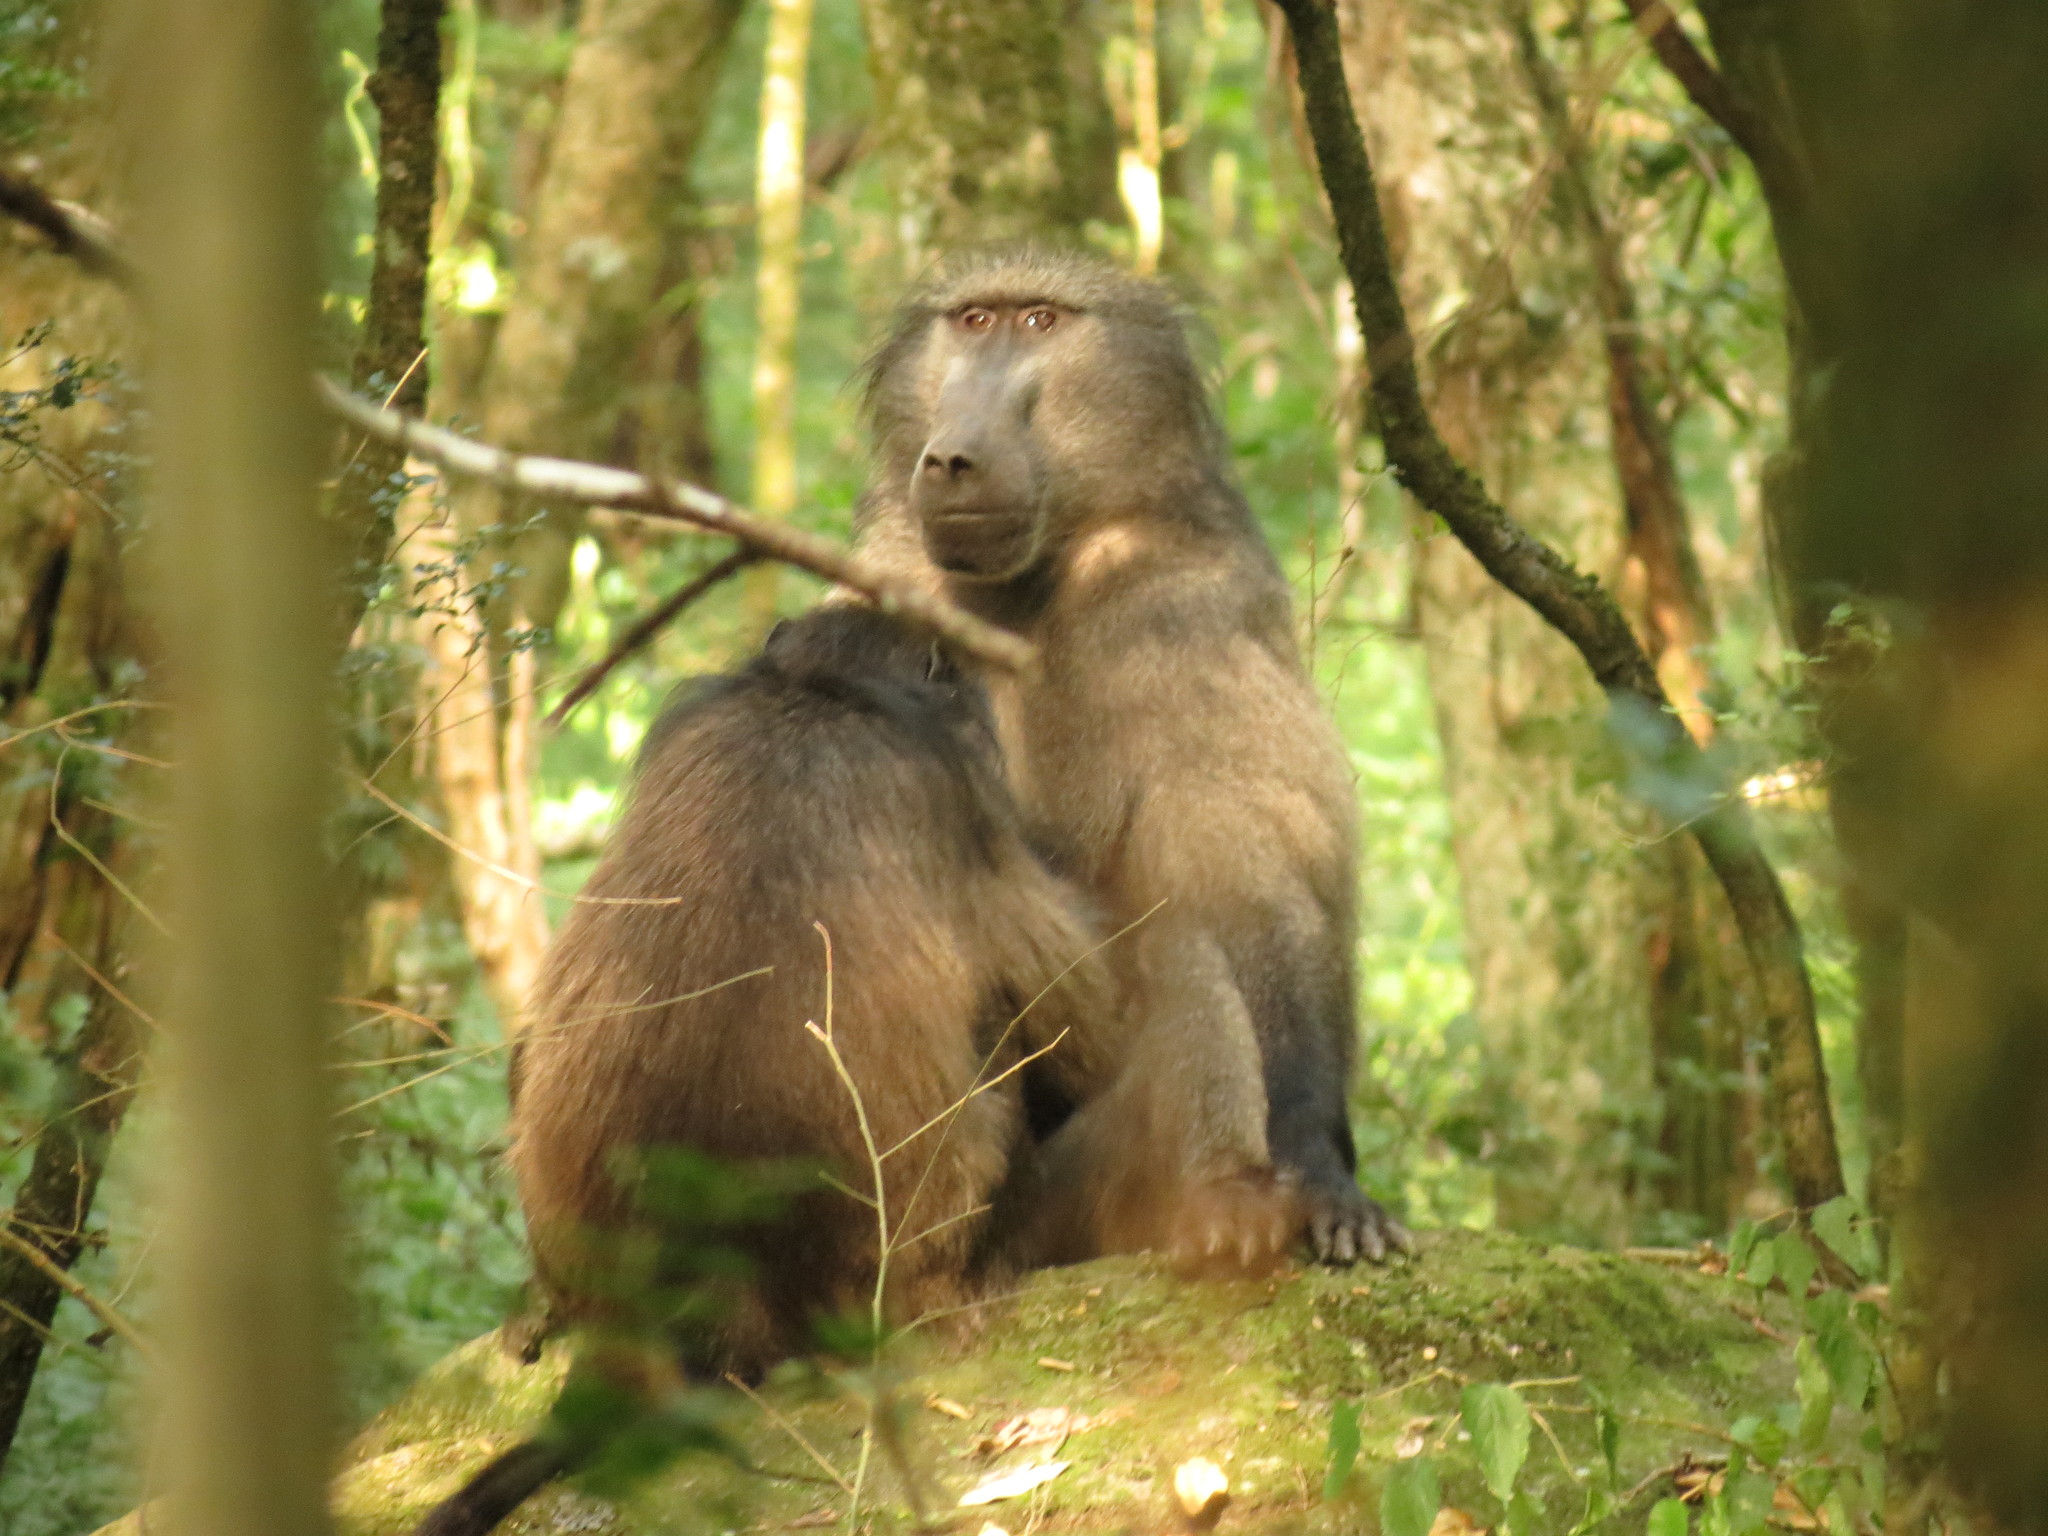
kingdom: Animalia
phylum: Chordata
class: Mammalia
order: Primates
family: Cercopithecidae
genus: Papio
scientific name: Papio ursinus
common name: Chacma baboon
